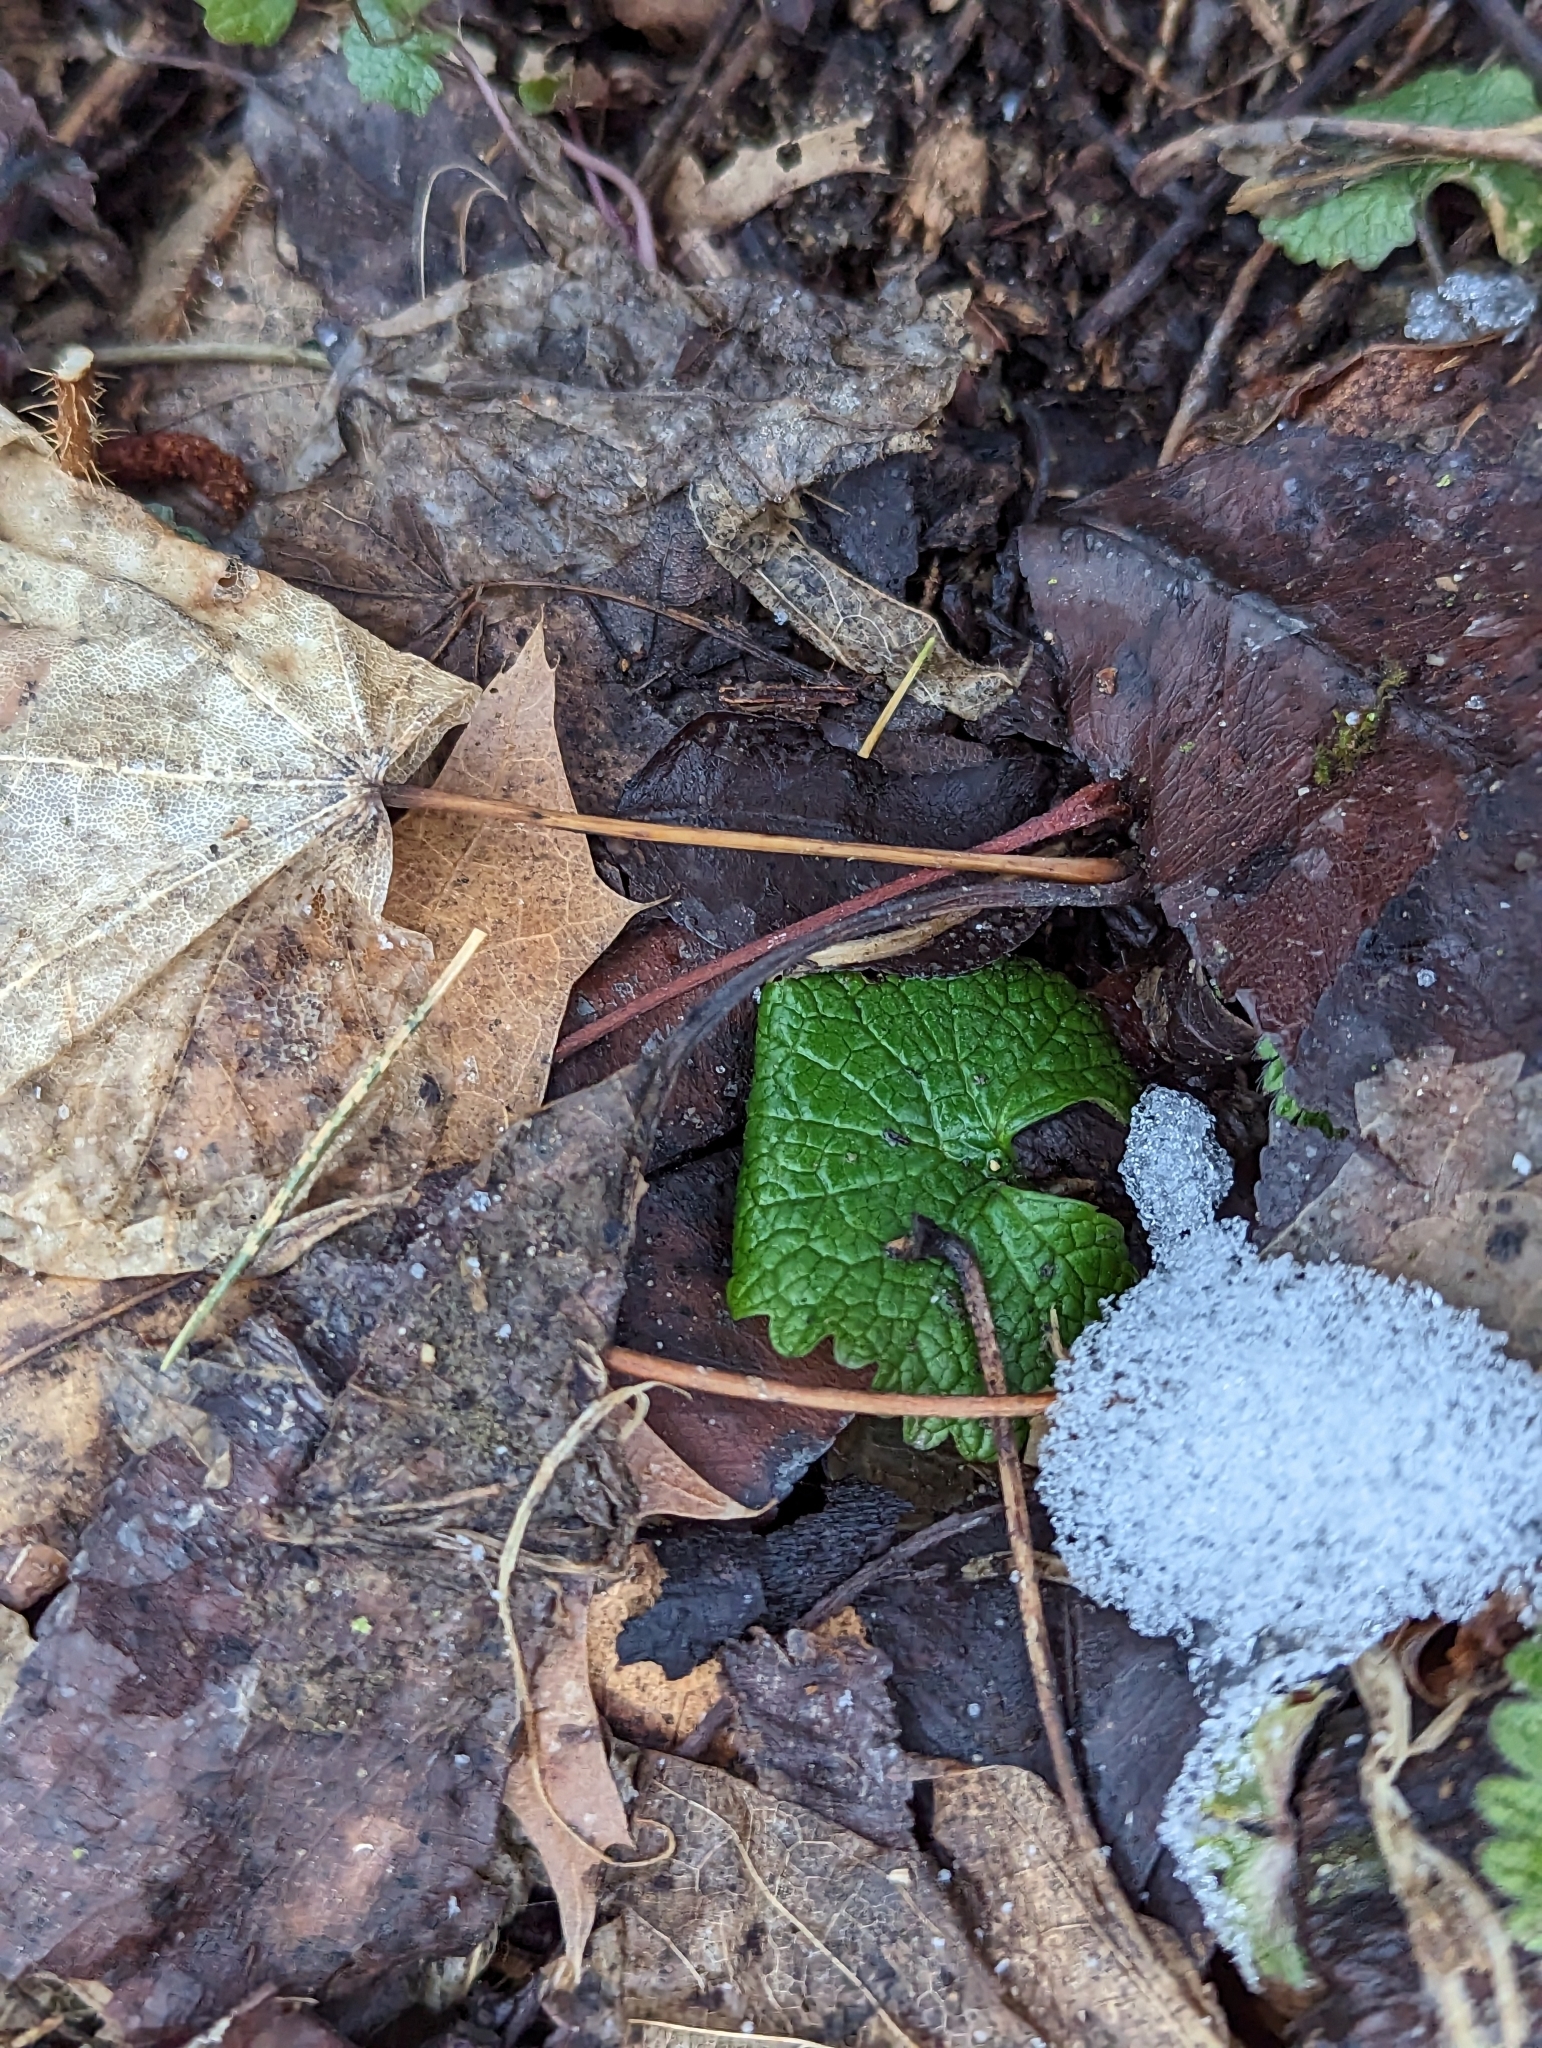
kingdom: Plantae
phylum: Tracheophyta
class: Magnoliopsida
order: Brassicales
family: Brassicaceae
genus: Alliaria
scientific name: Alliaria petiolata
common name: Garlic mustard
